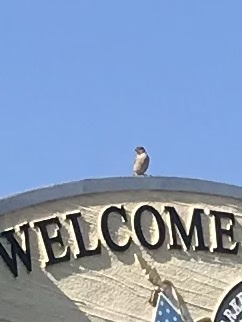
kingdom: Animalia
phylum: Chordata
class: Aves
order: Passeriformes
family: Passeridae
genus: Passer
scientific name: Passer domesticus
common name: House sparrow
